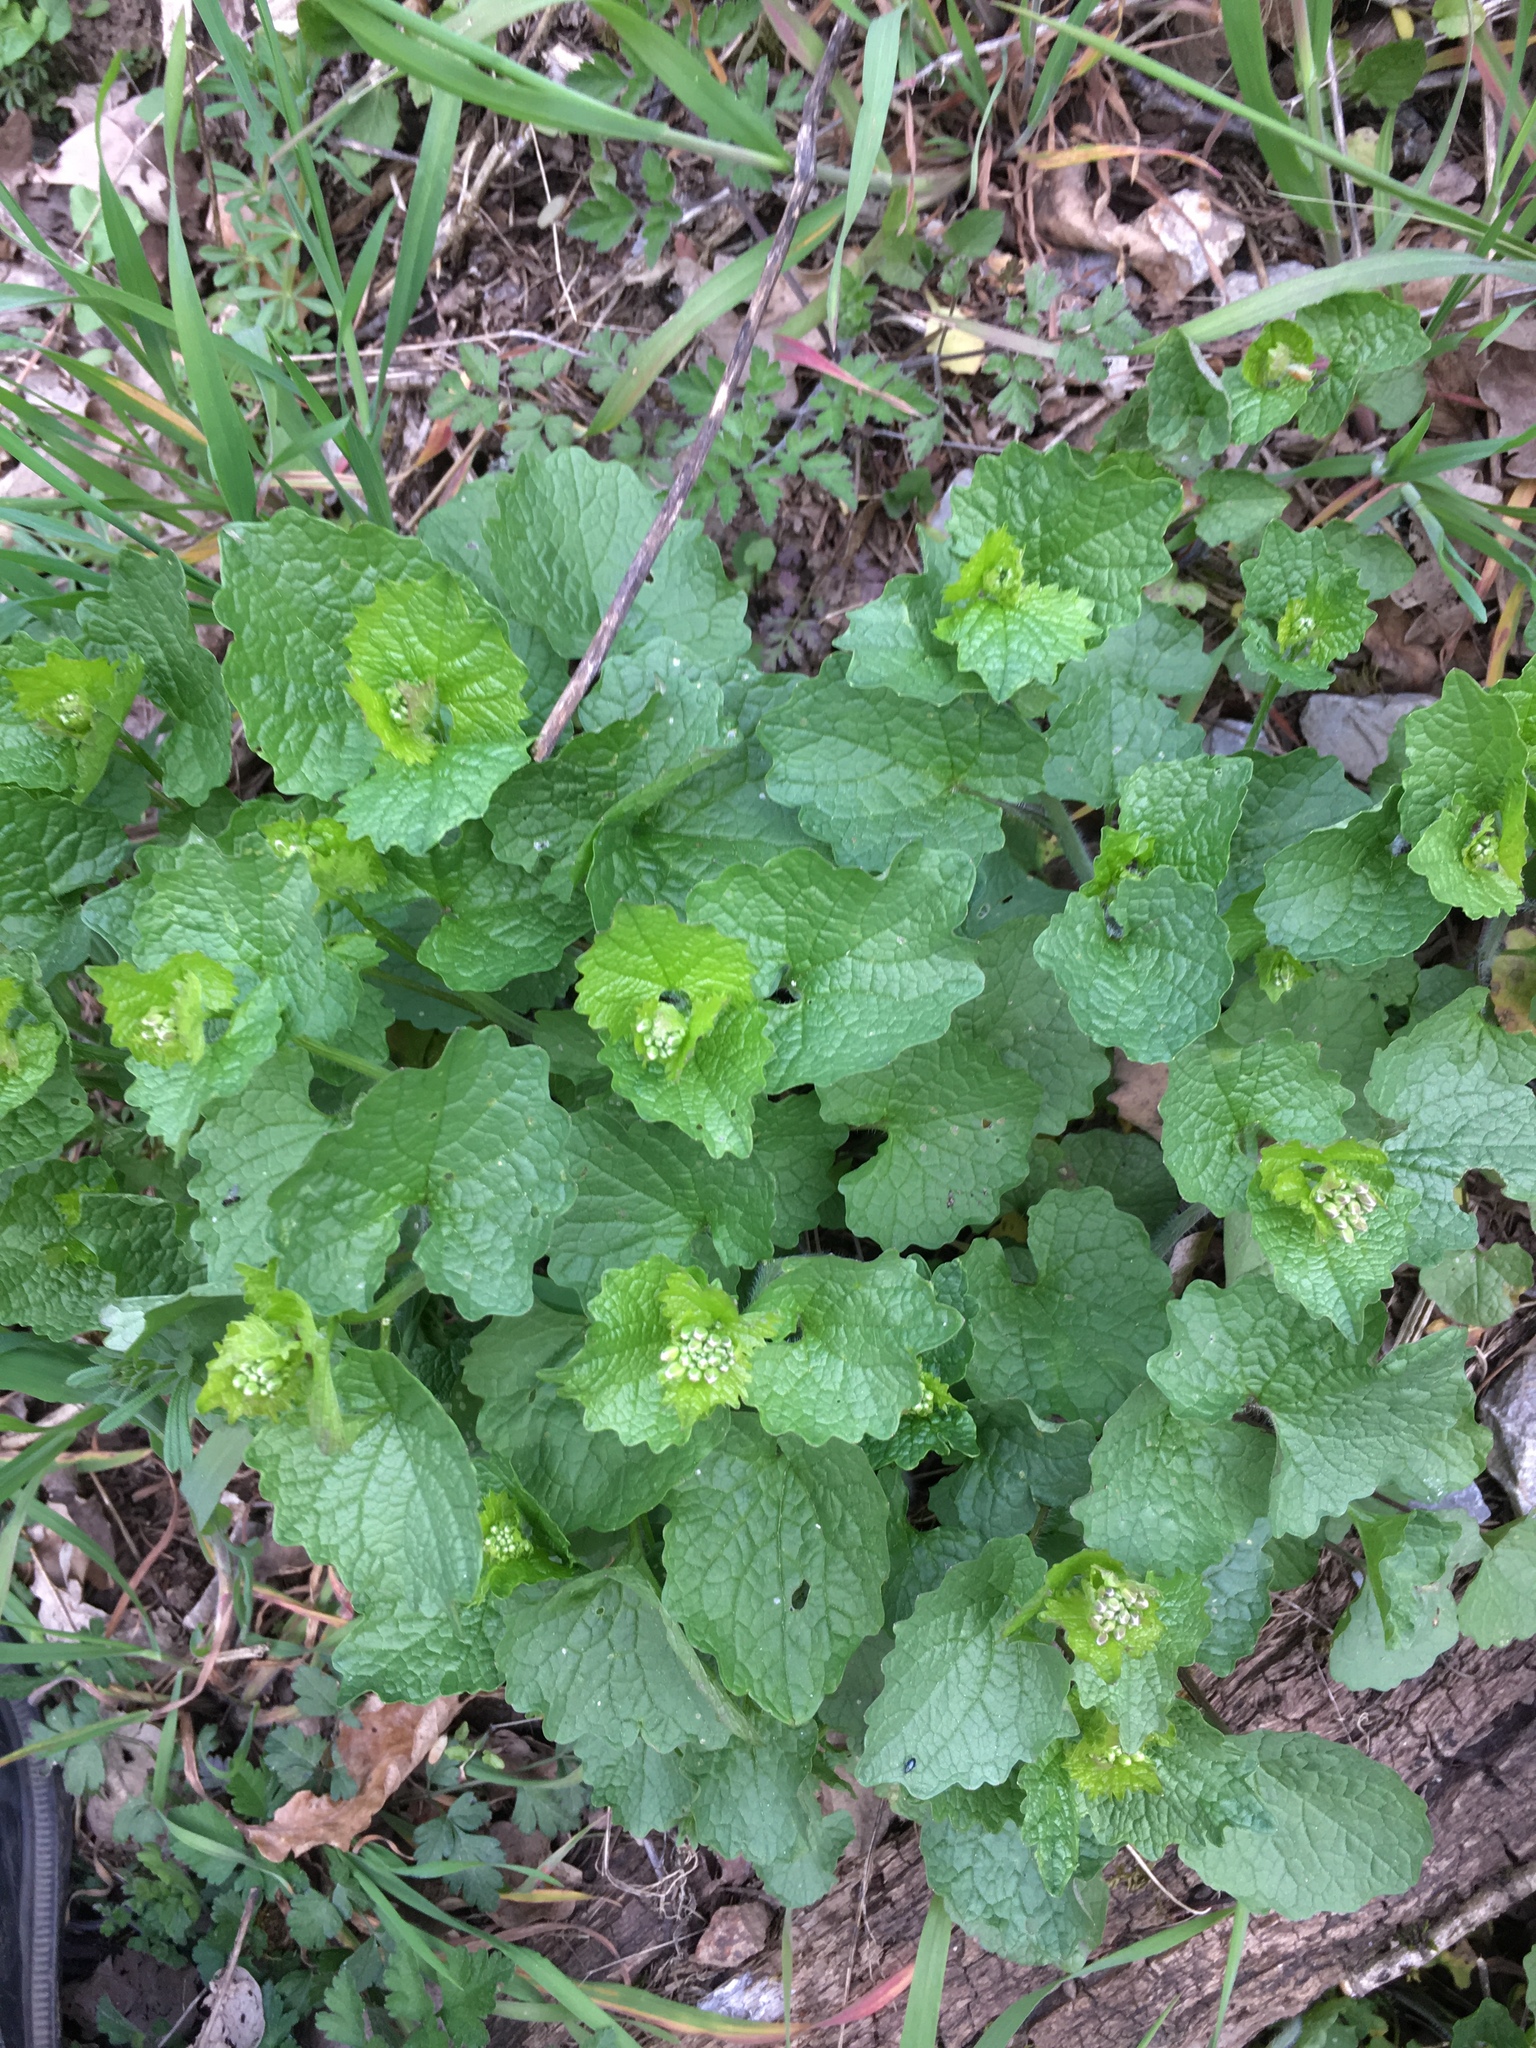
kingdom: Plantae
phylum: Tracheophyta
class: Magnoliopsida
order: Brassicales
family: Brassicaceae
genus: Alliaria
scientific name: Alliaria petiolata
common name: Garlic mustard
